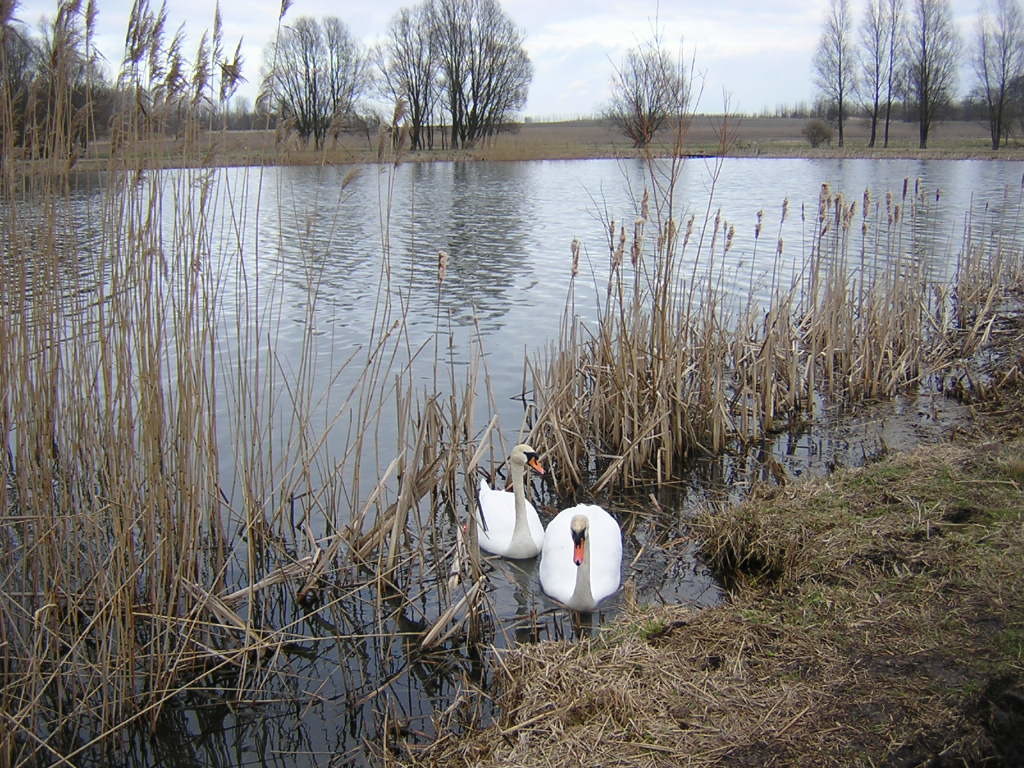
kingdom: Animalia
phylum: Chordata
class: Aves
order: Anseriformes
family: Anatidae
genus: Cygnus
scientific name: Cygnus olor
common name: Mute swan
